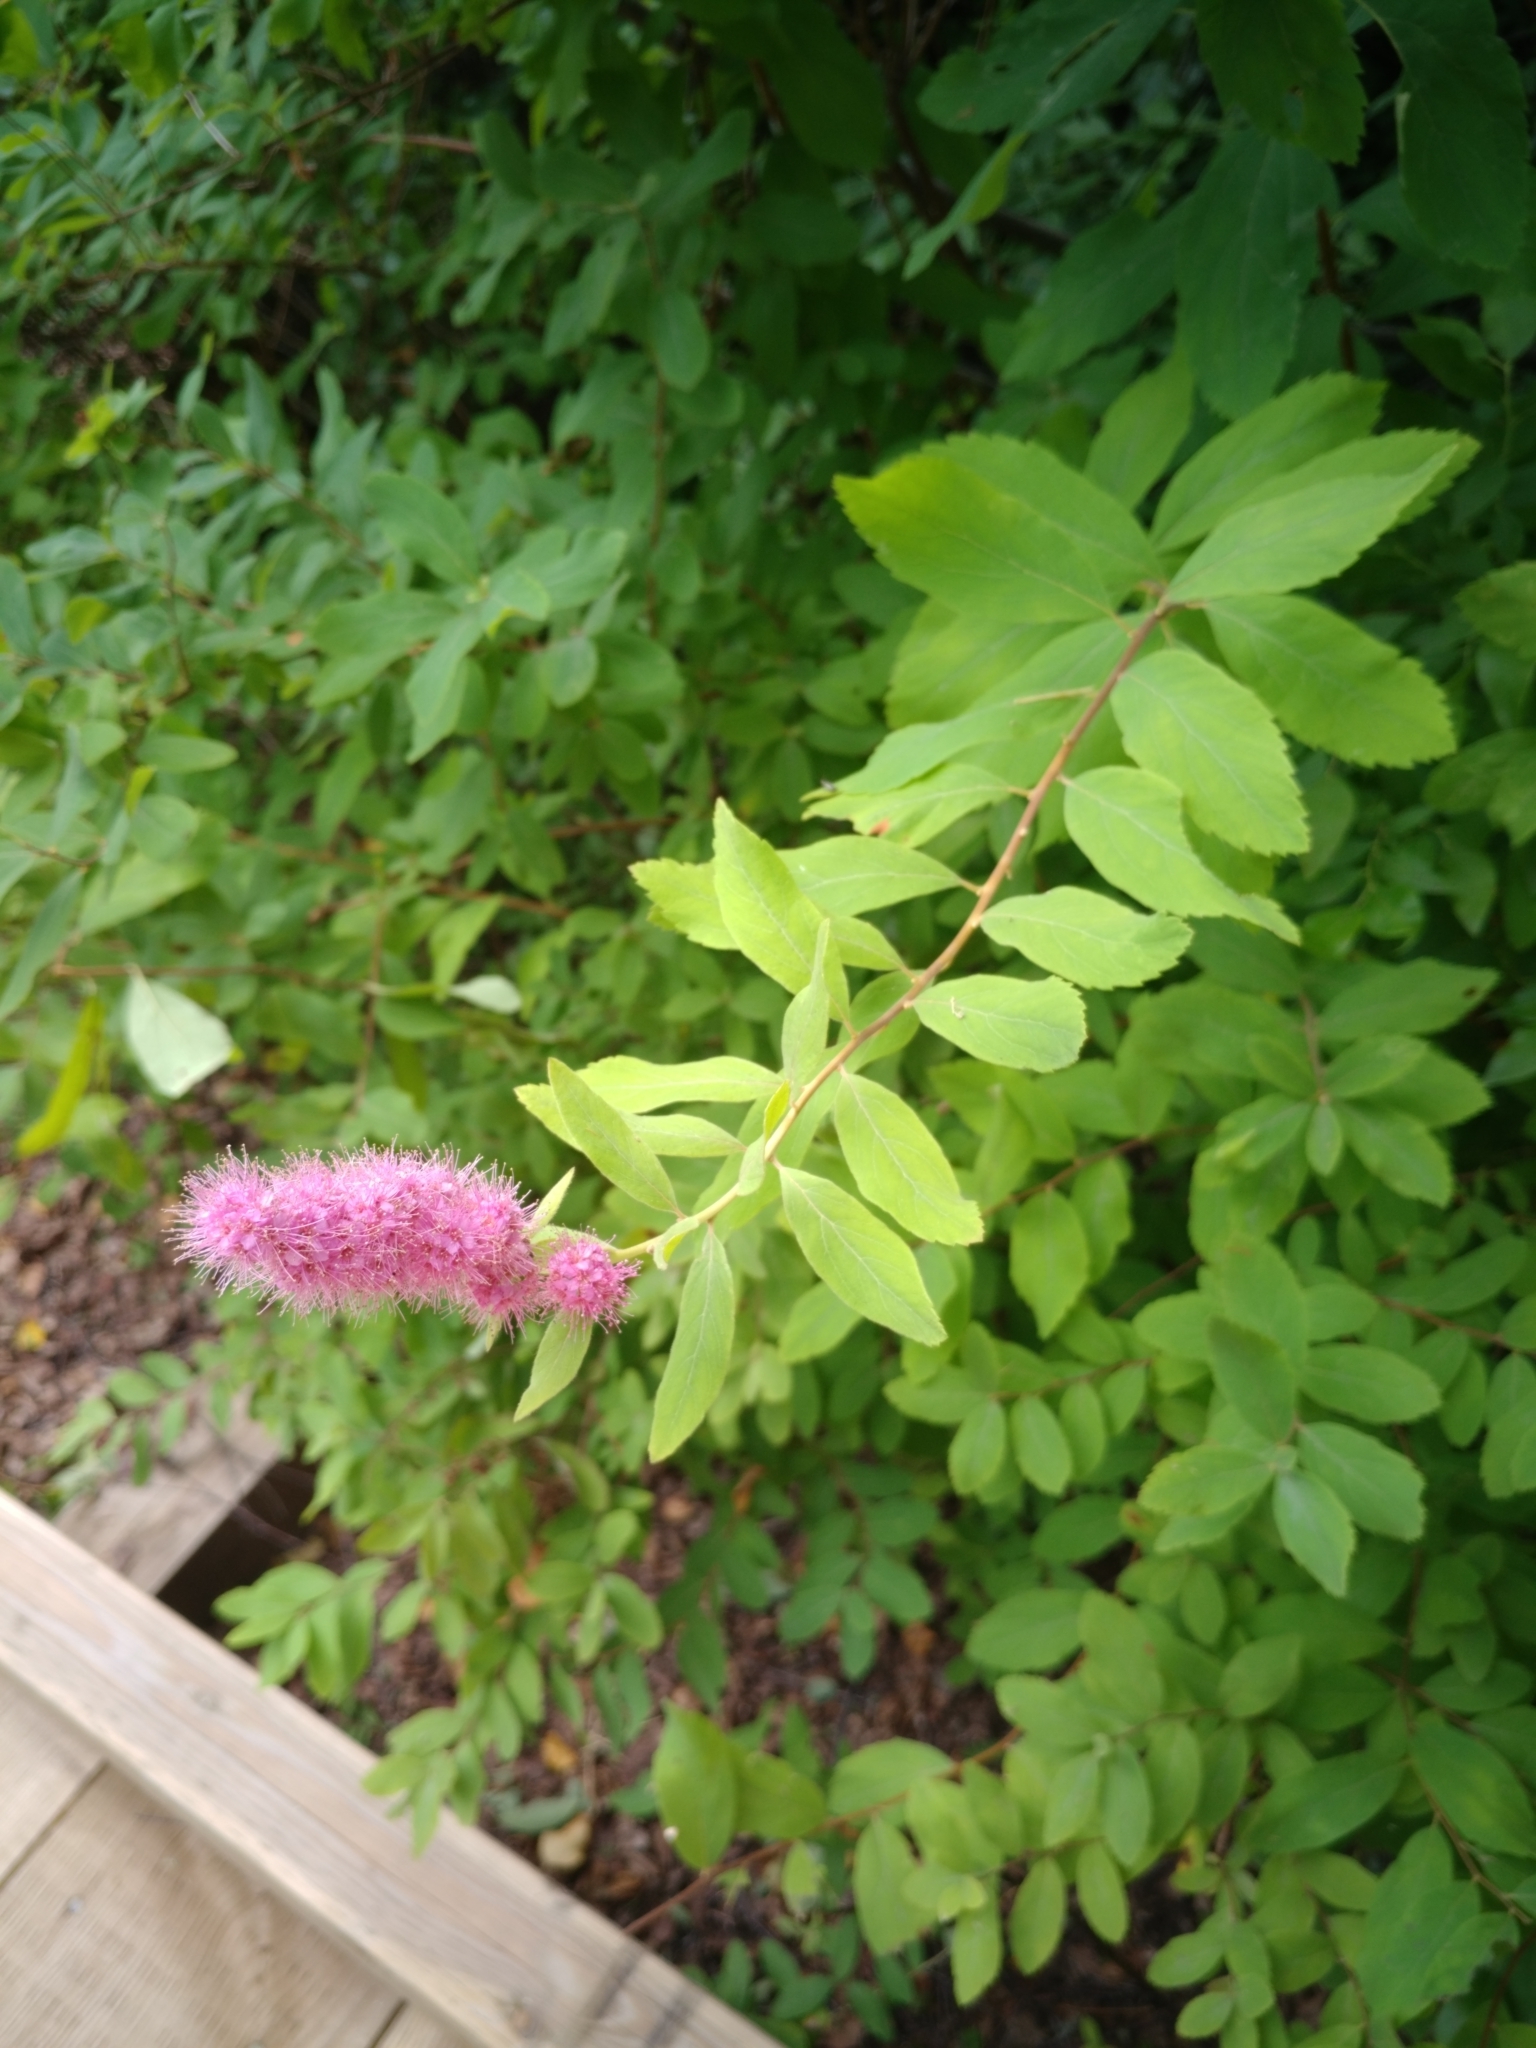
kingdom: Plantae
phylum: Tracheophyta
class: Magnoliopsida
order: Rosales
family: Rosaceae
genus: Spiraea
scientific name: Spiraea douglasii
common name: Steeplebush
